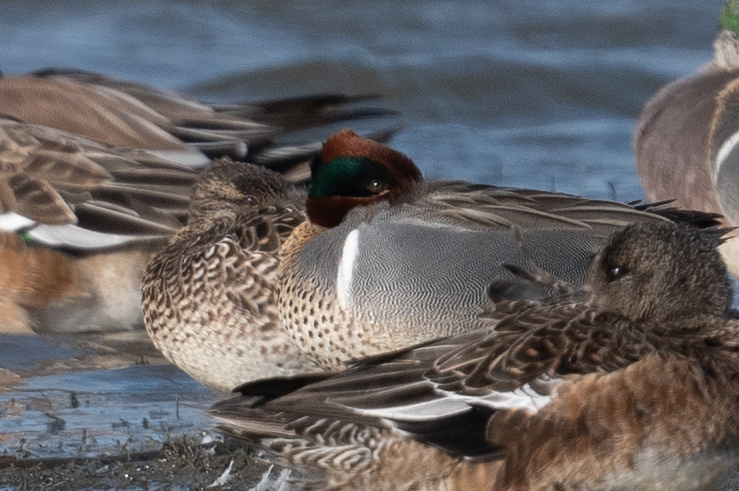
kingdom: Animalia
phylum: Chordata
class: Aves
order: Anseriformes
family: Anatidae
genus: Anas
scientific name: Anas crecca
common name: Eurasian teal
